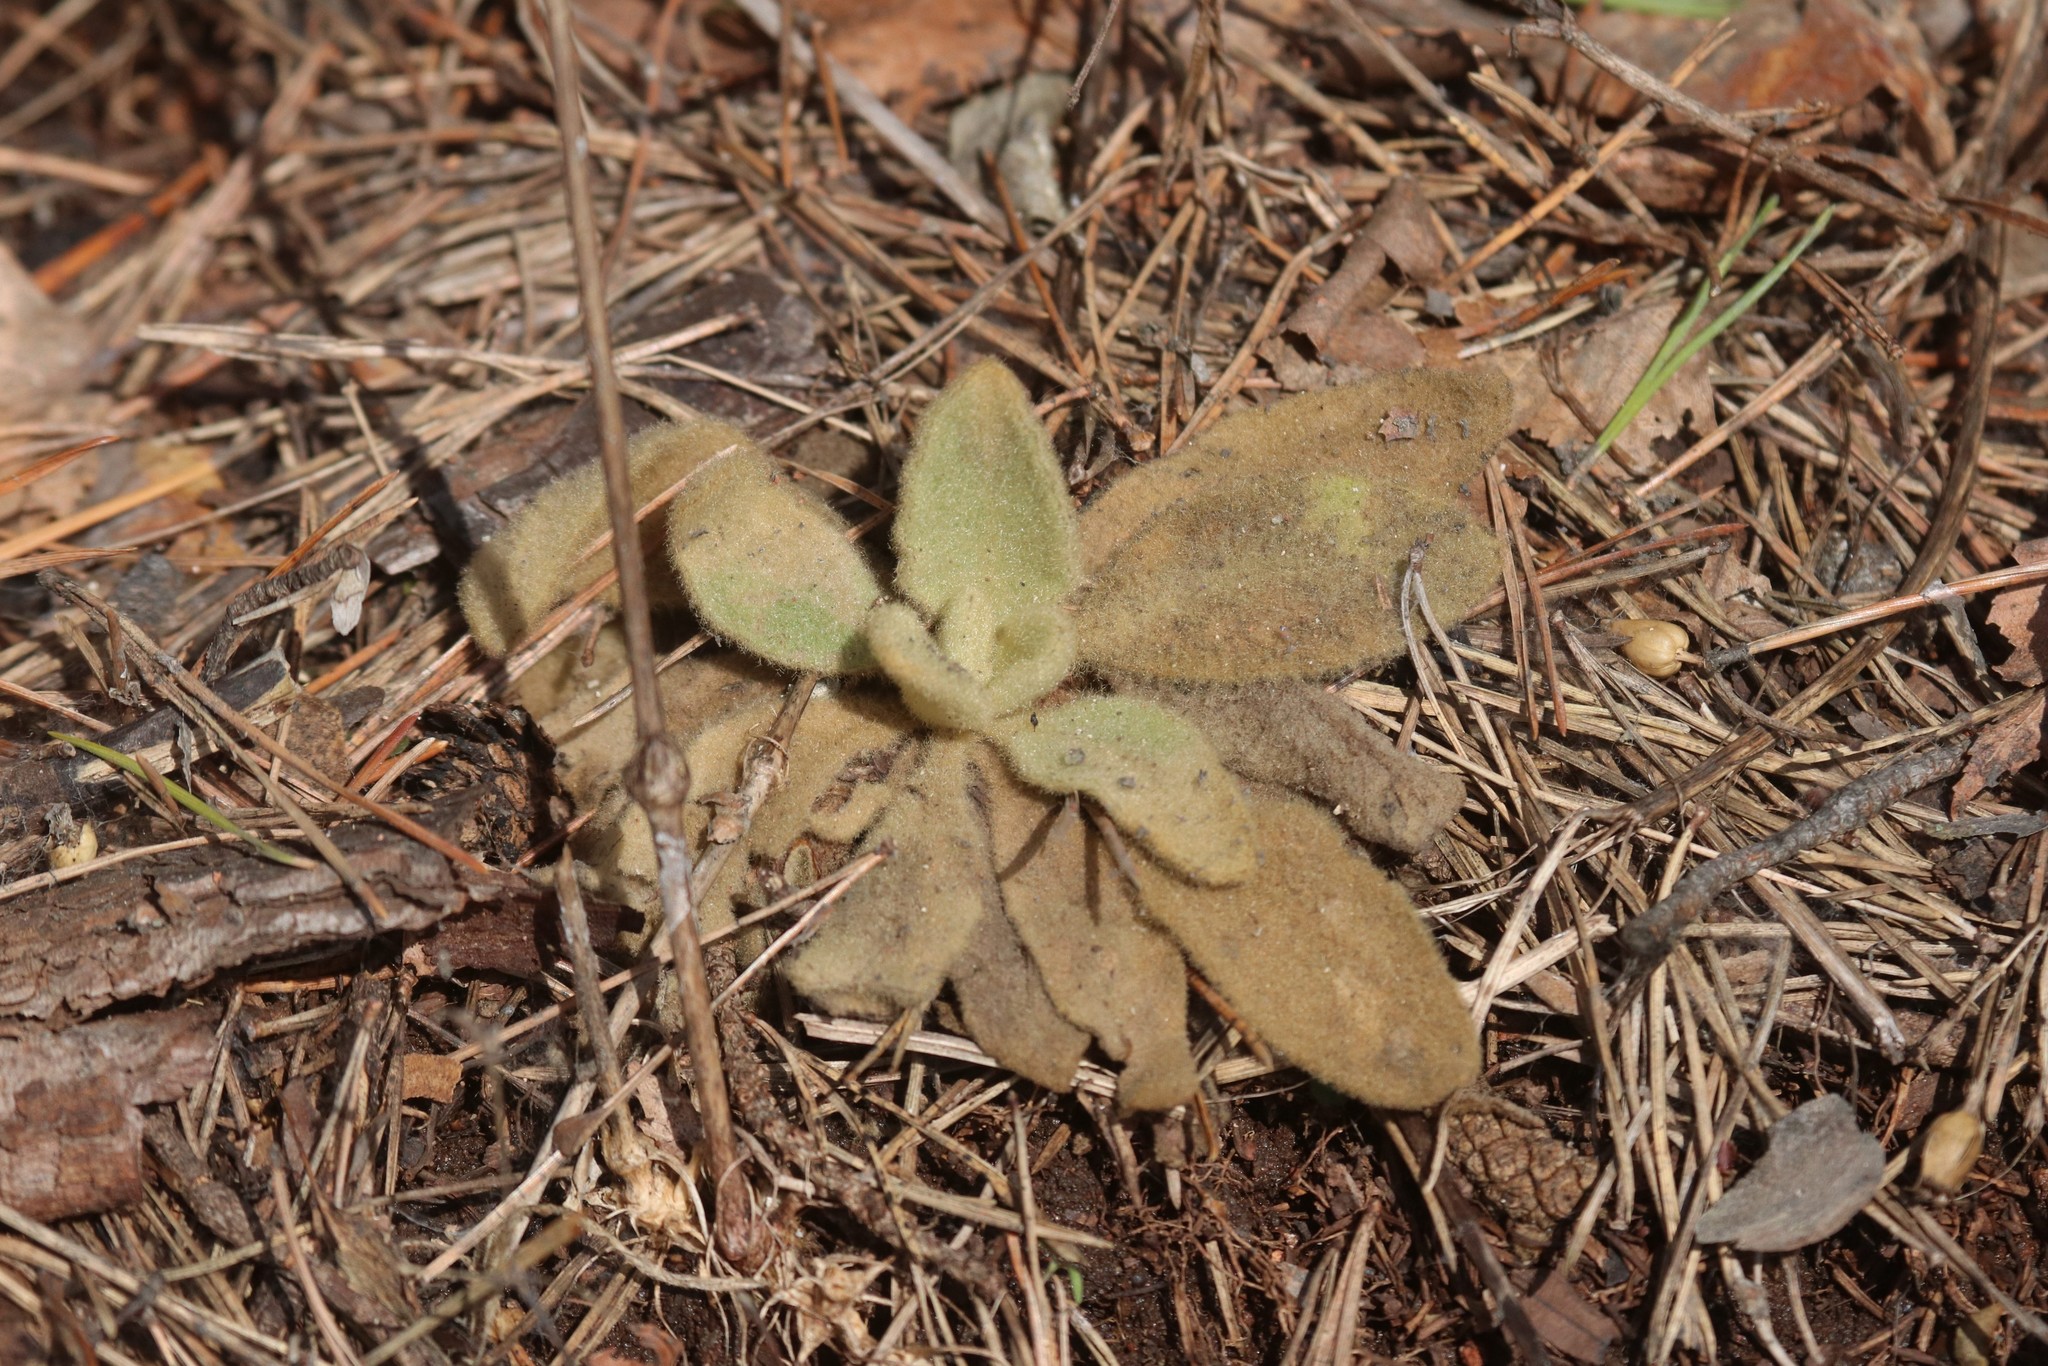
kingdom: Plantae
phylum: Tracheophyta
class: Magnoliopsida
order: Lamiales
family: Scrophulariaceae
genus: Verbascum
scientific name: Verbascum thapsus
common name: Common mullein
